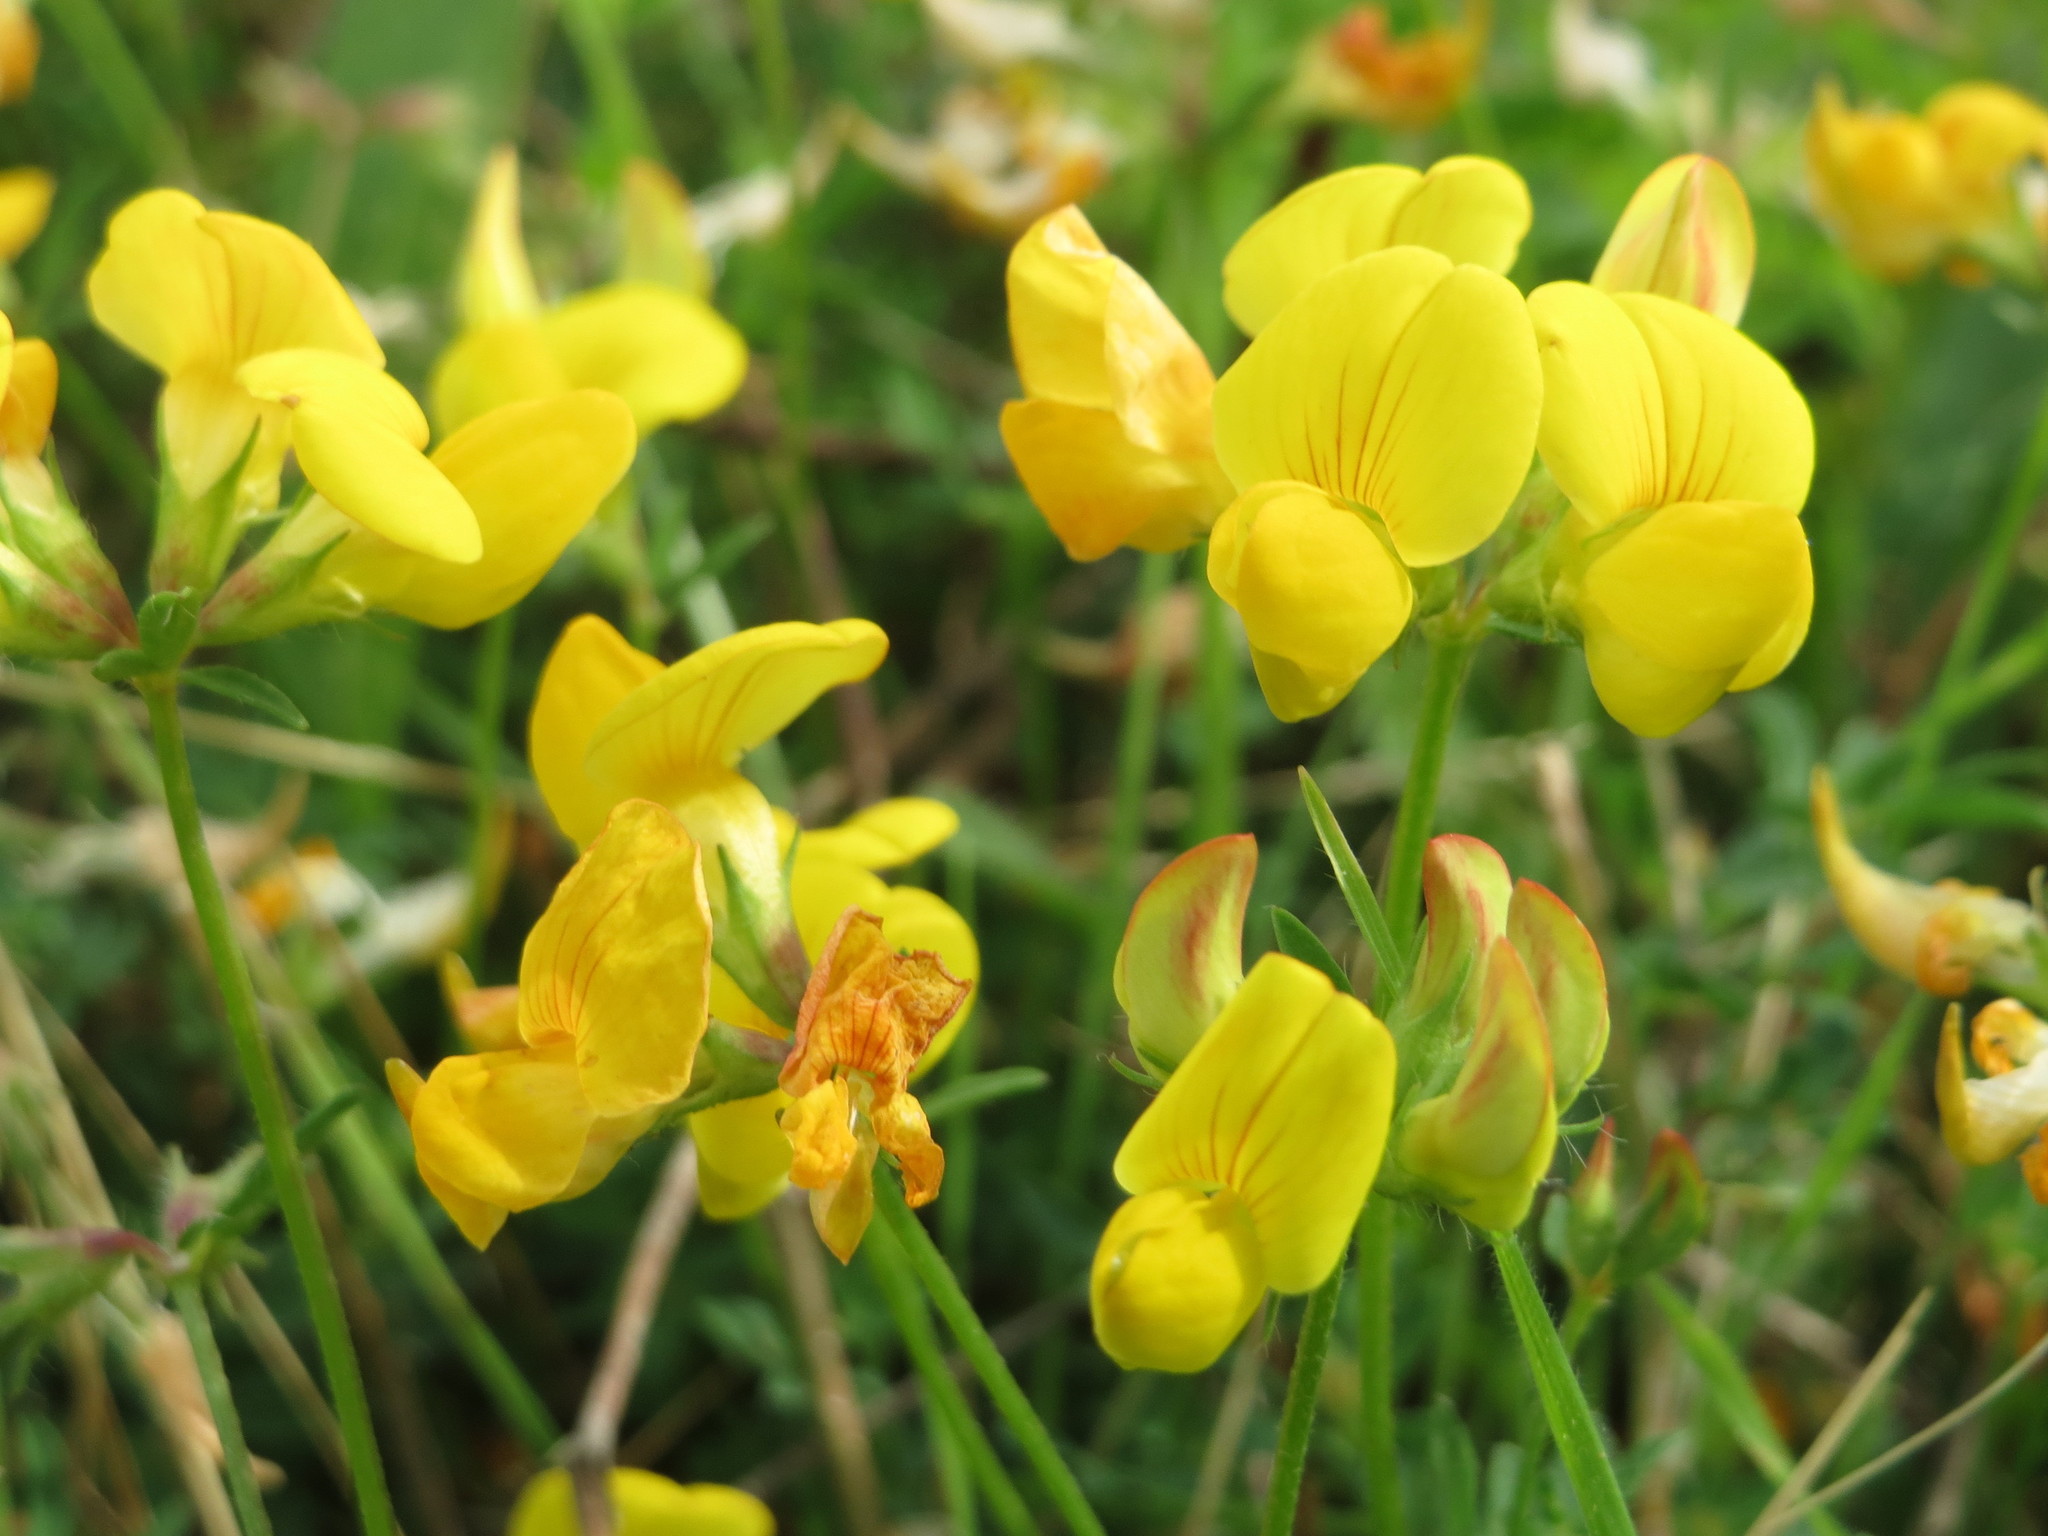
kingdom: Plantae
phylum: Tracheophyta
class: Magnoliopsida
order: Fabales
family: Fabaceae
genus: Lotus
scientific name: Lotus corniculatus
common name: Common bird's-foot-trefoil
